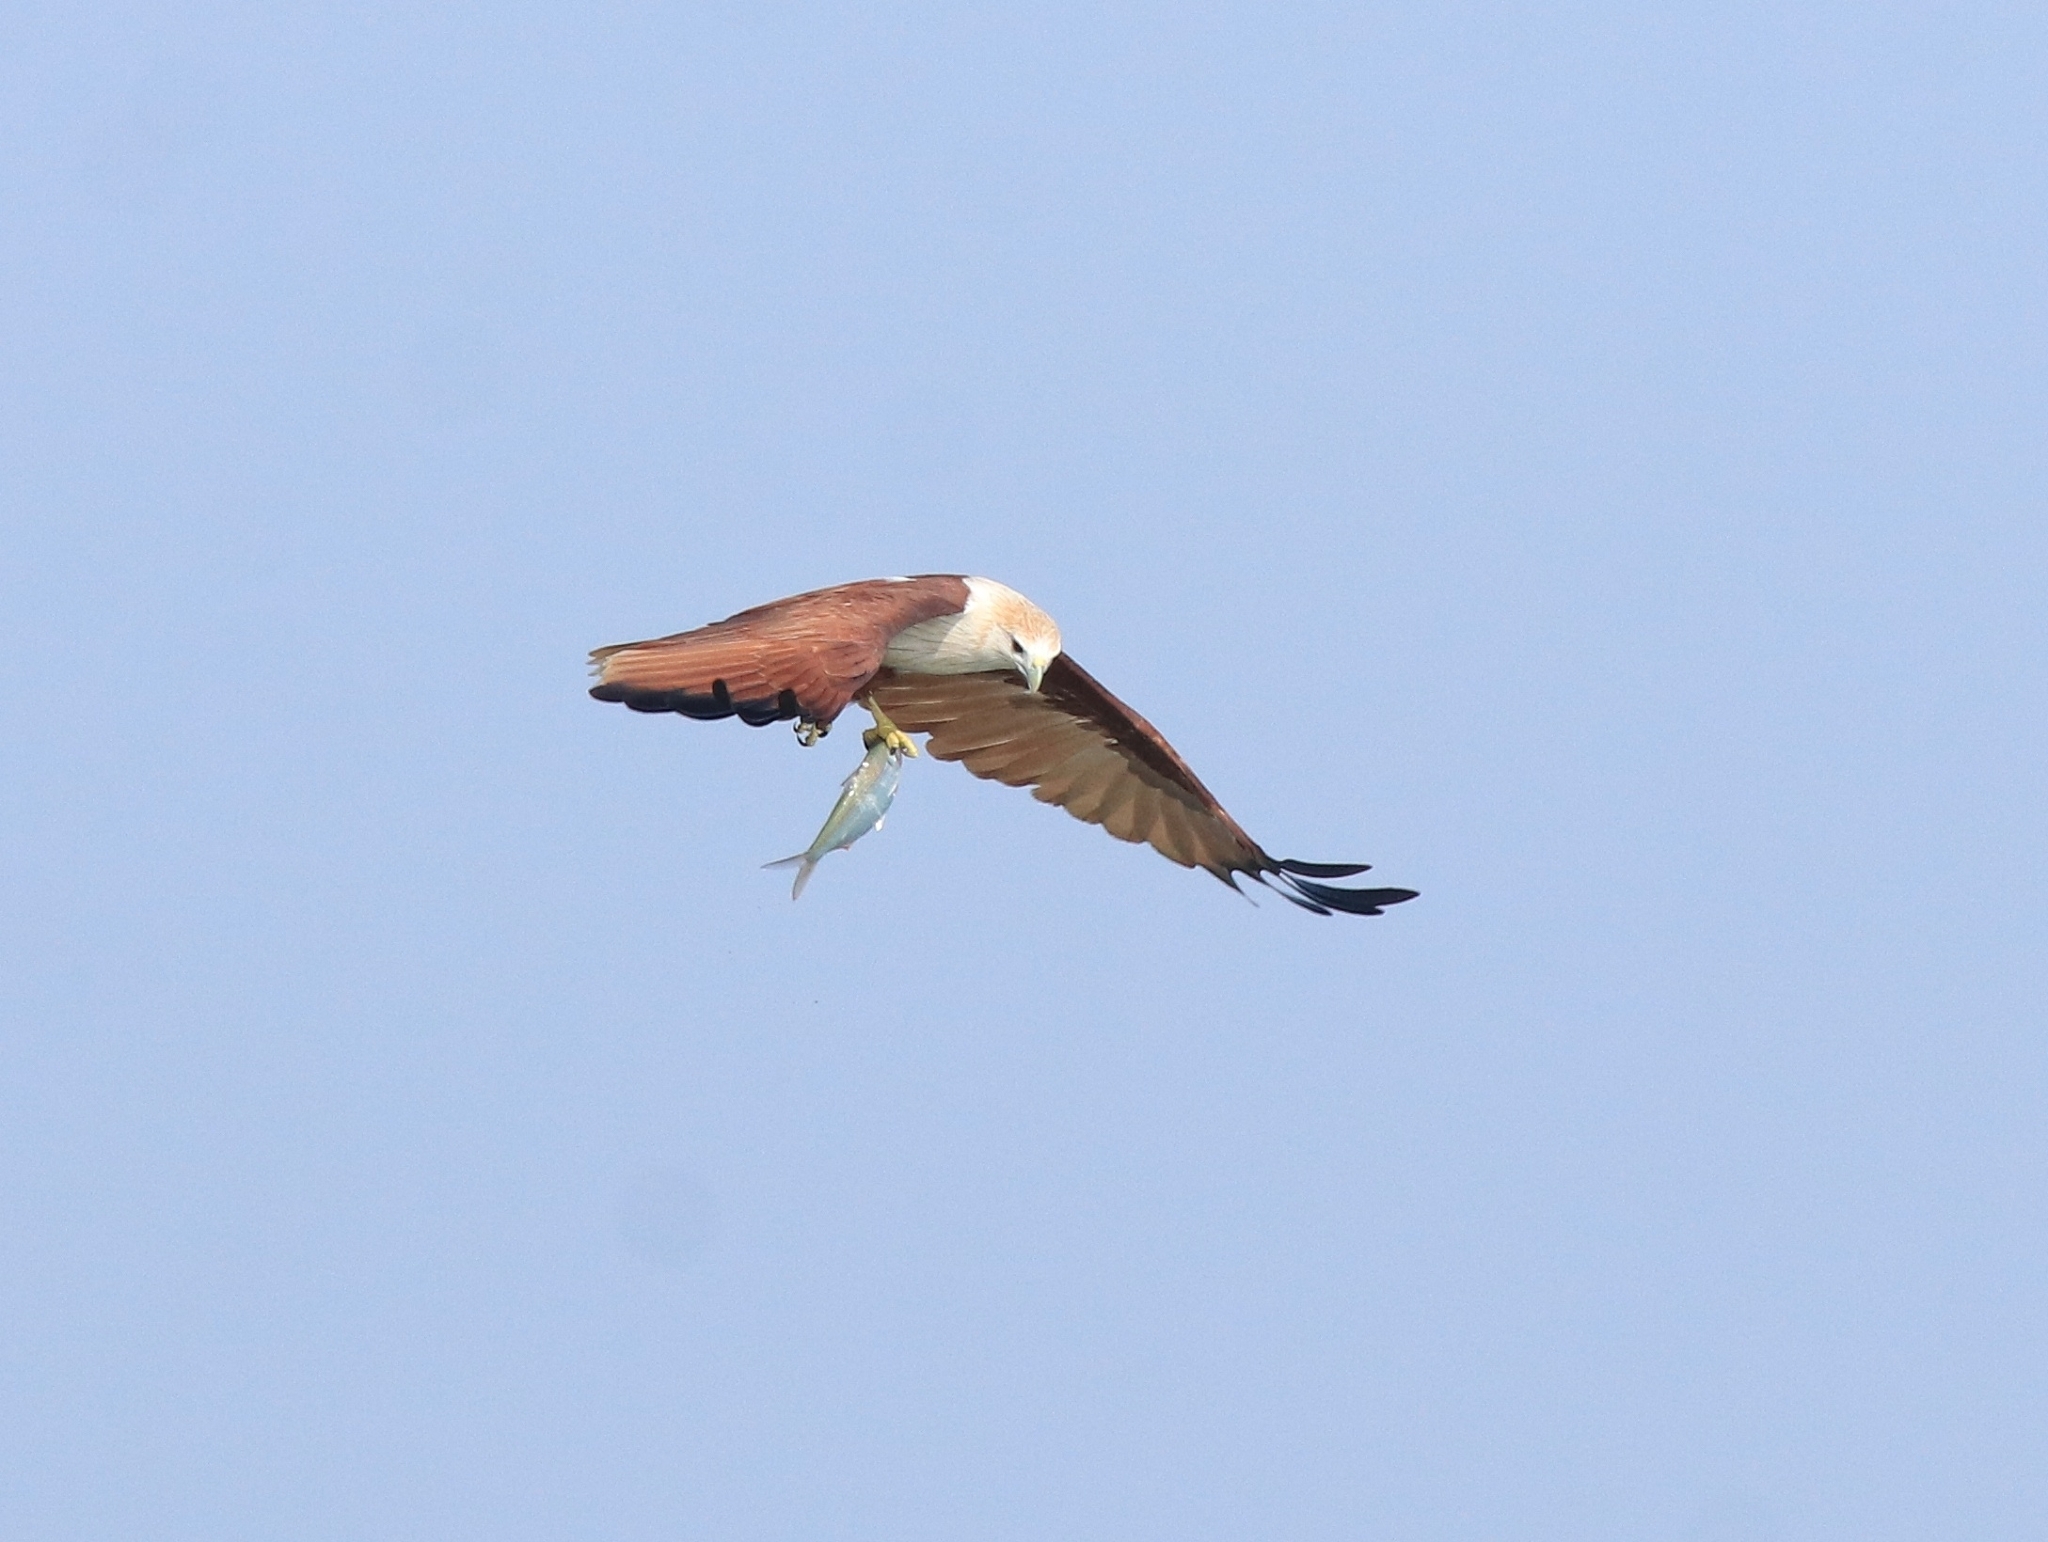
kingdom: Animalia
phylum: Chordata
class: Aves
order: Accipitriformes
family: Accipitridae
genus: Haliastur
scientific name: Haliastur indus
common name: Brahminy kite
